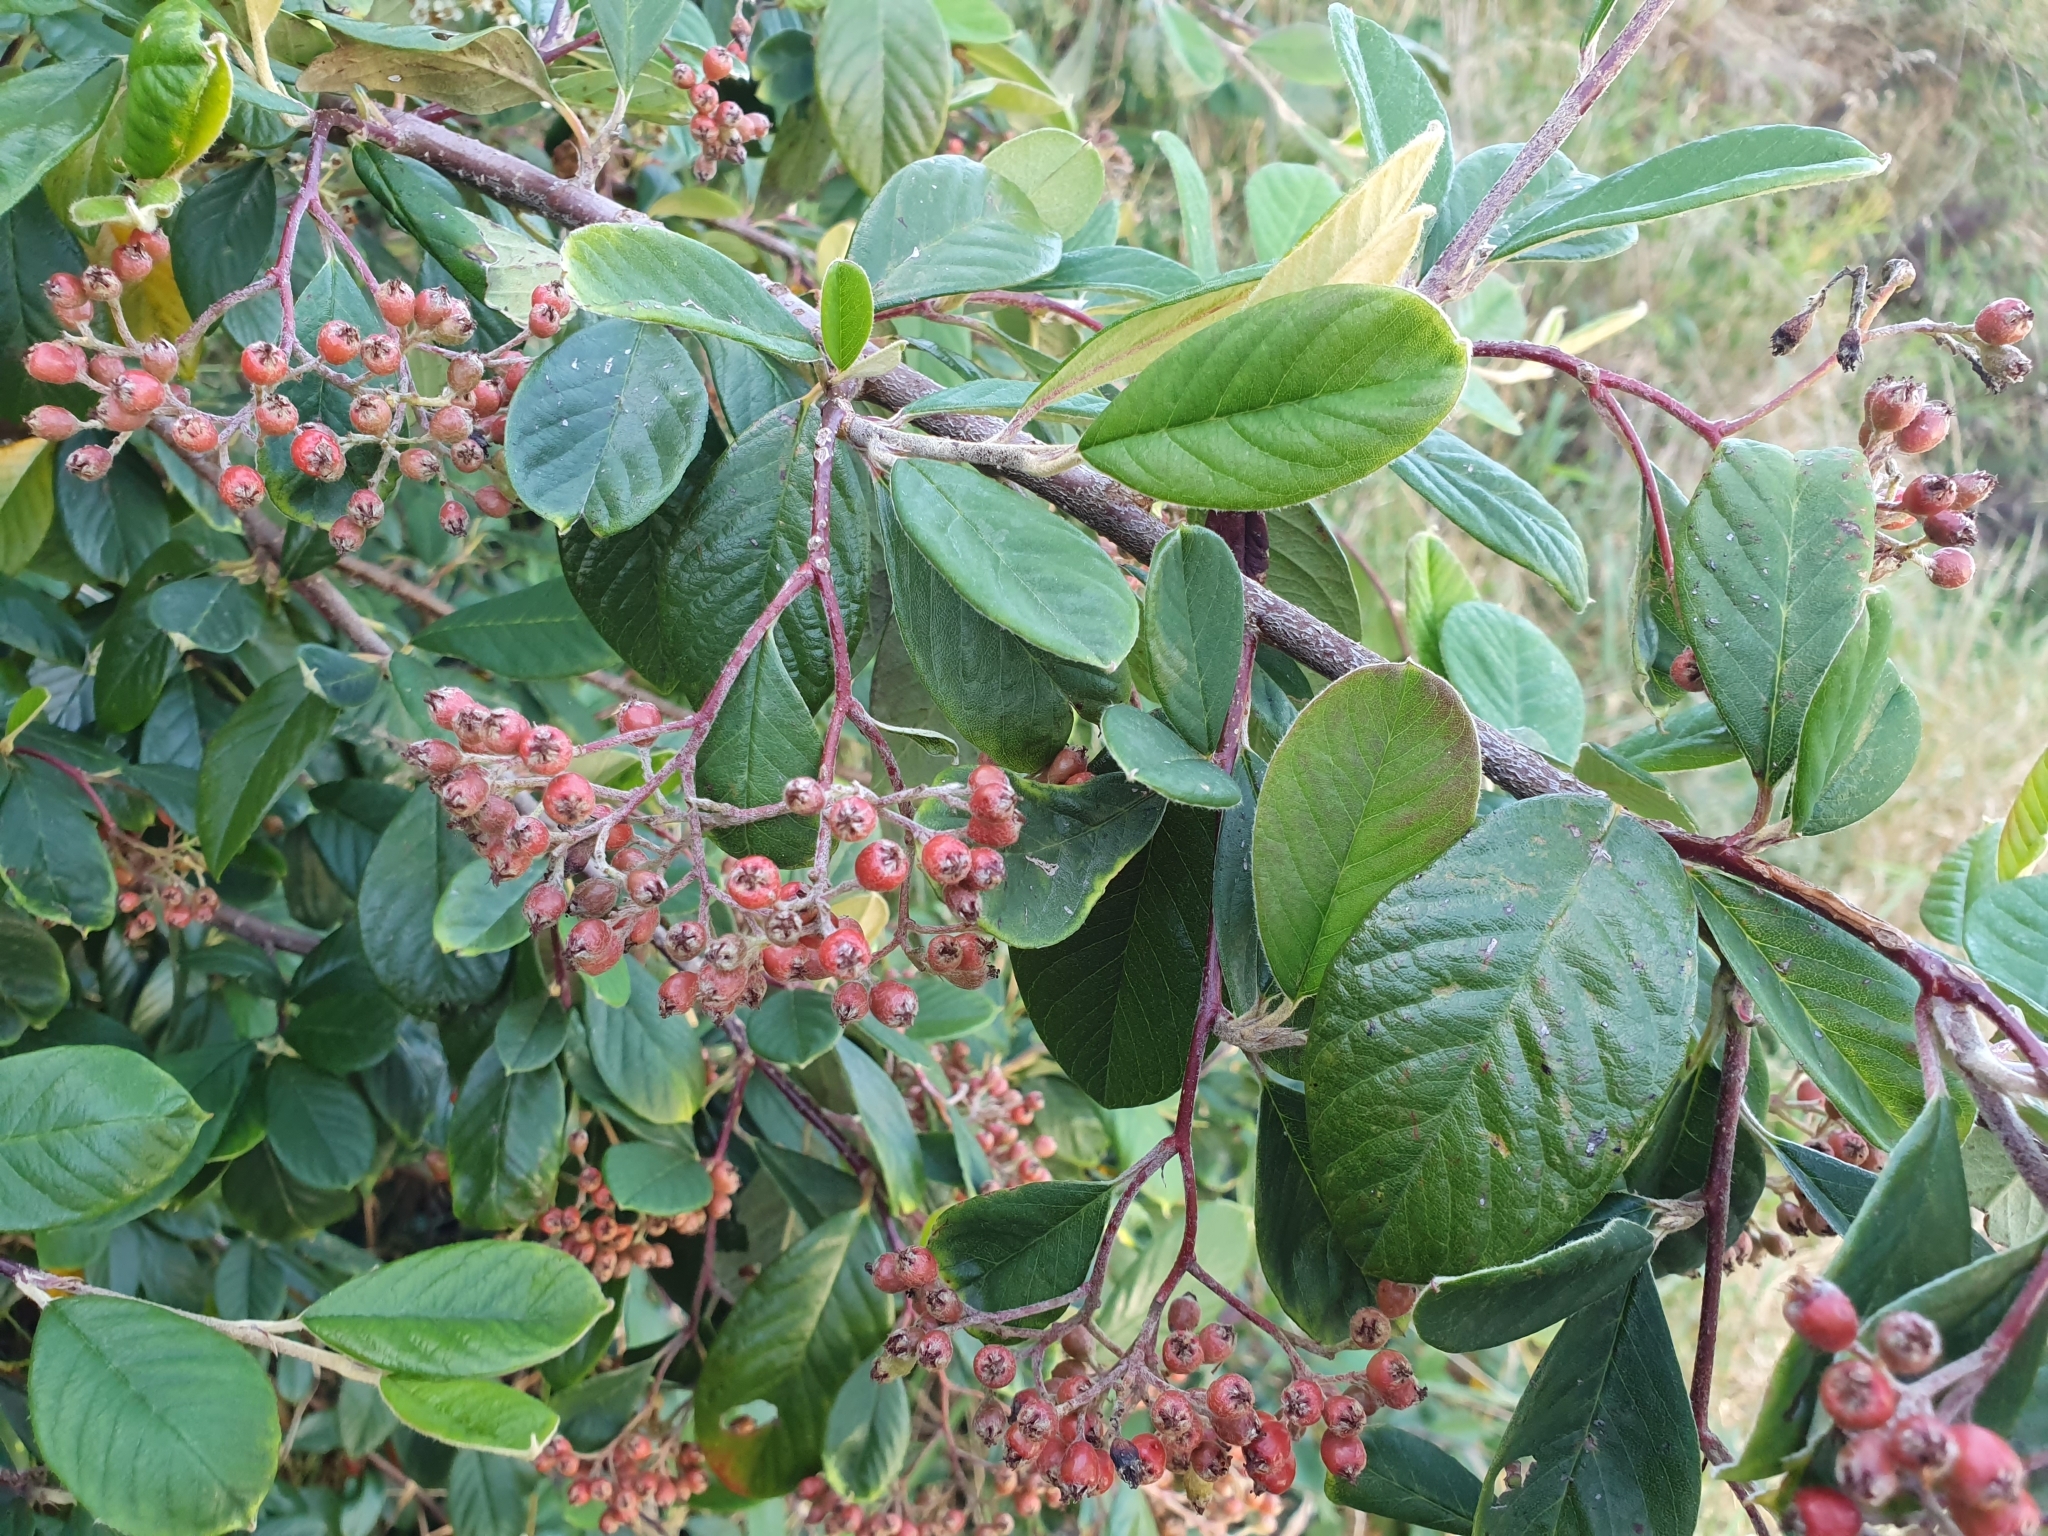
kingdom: Plantae
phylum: Tracheophyta
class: Magnoliopsida
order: Rosales
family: Rosaceae
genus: Cotoneaster
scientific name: Cotoneaster coriaceus
